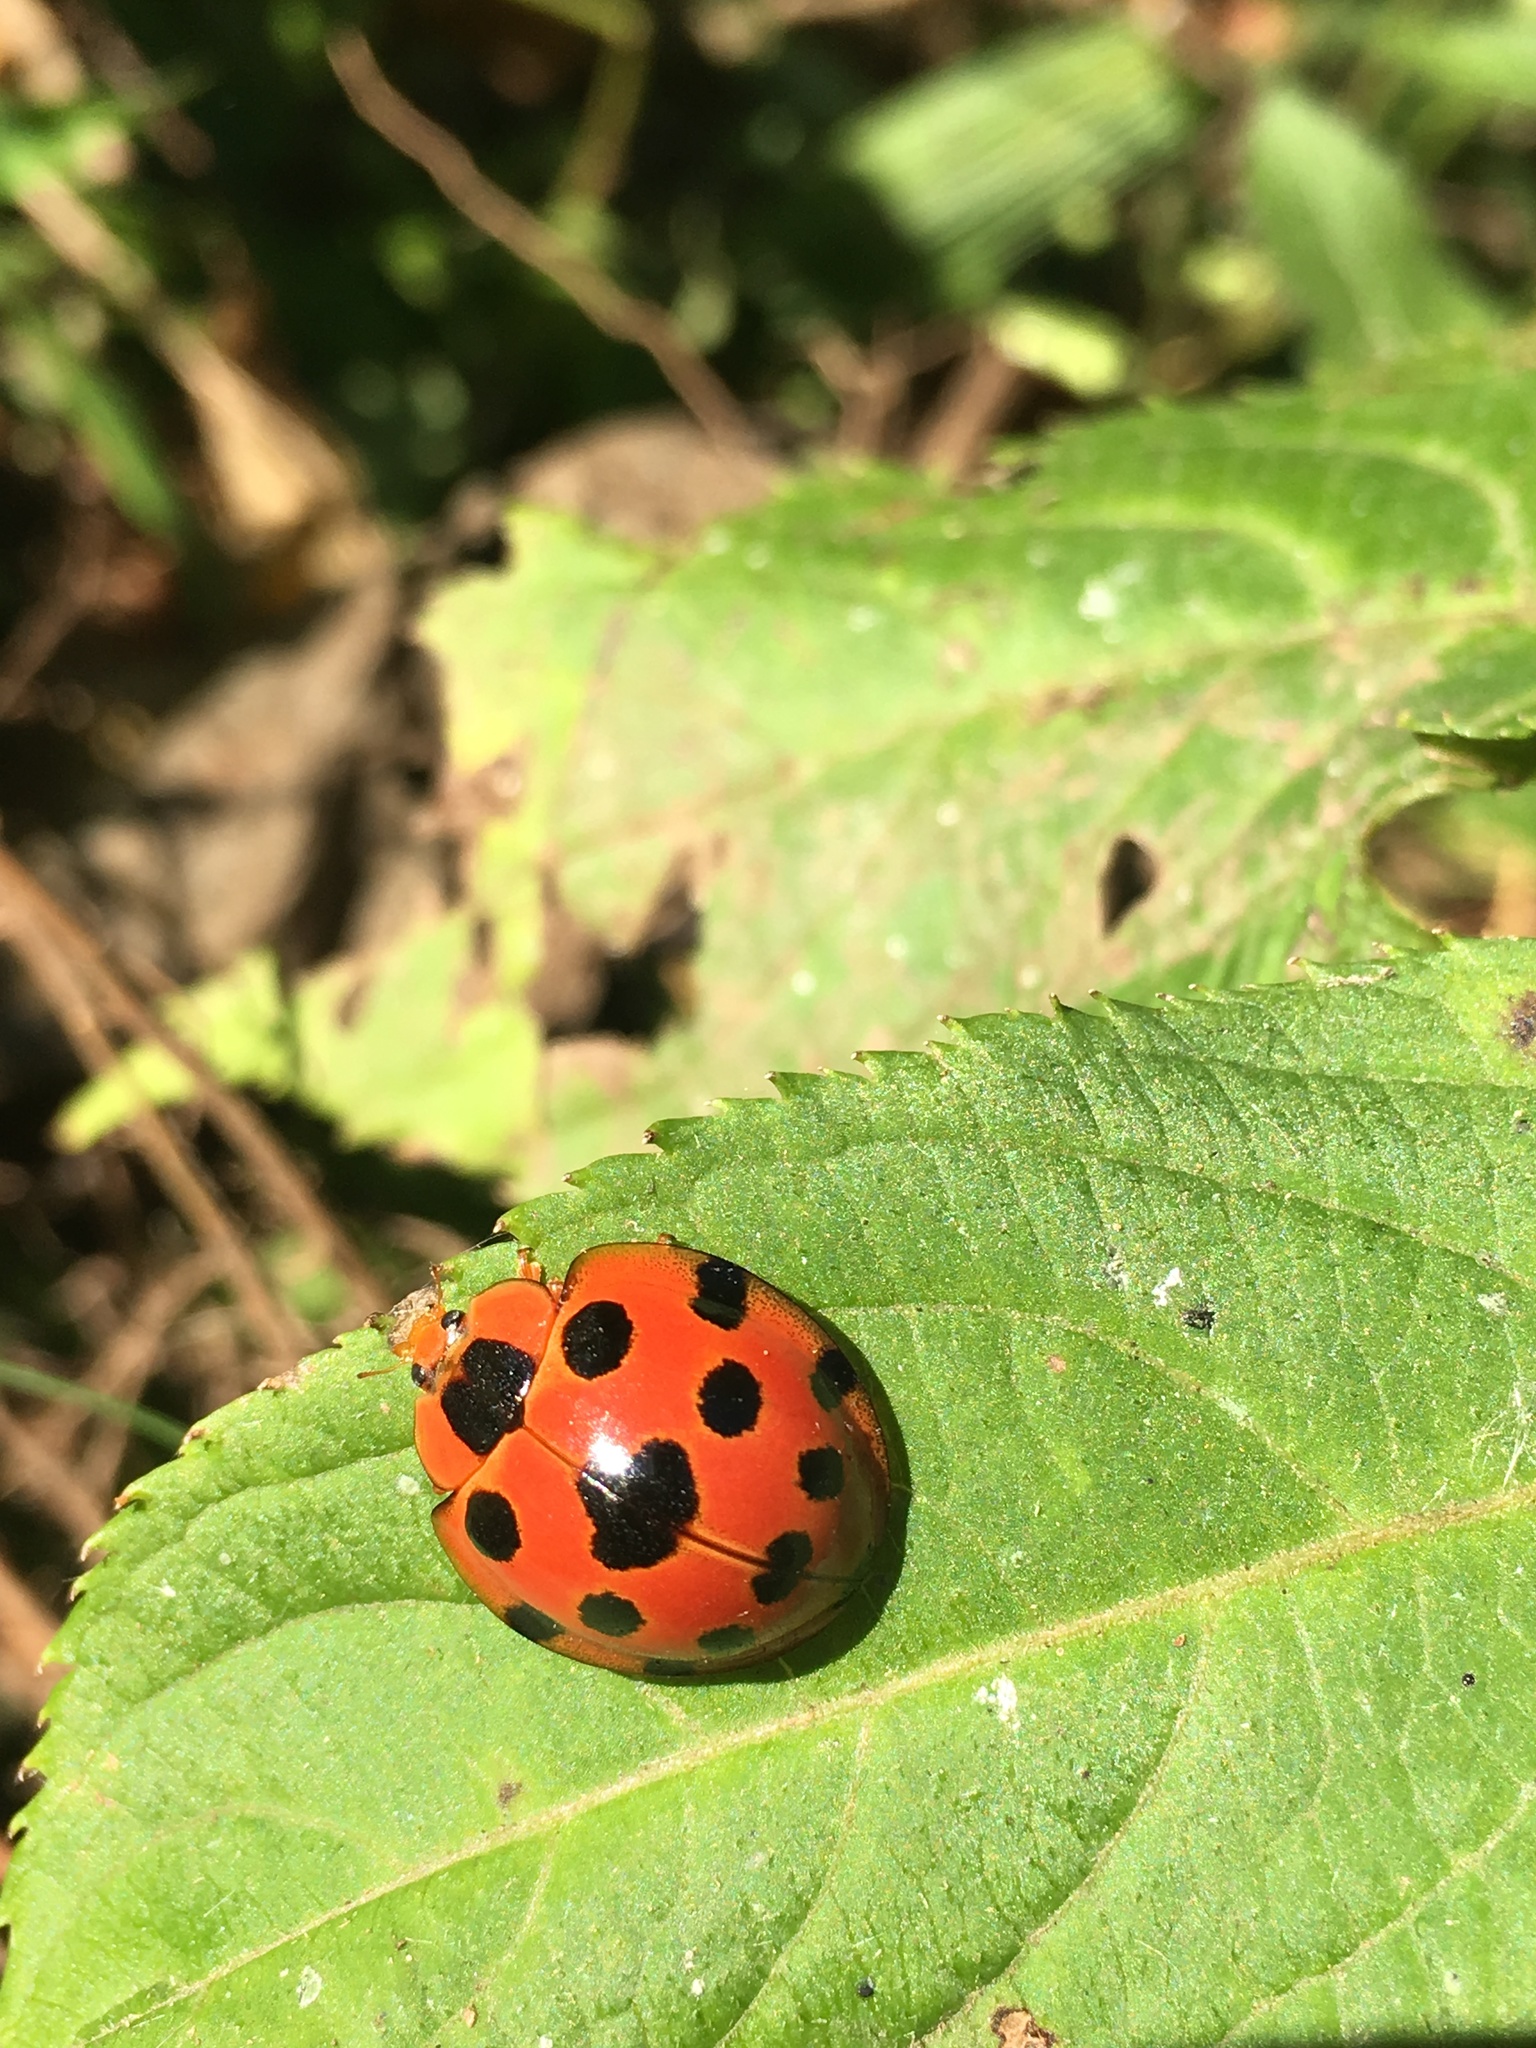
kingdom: Animalia
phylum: Arthropoda
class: Insecta
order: Coleoptera
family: Coccinellidae
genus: Synonycha
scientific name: Synonycha grandis
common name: Lady beetle
